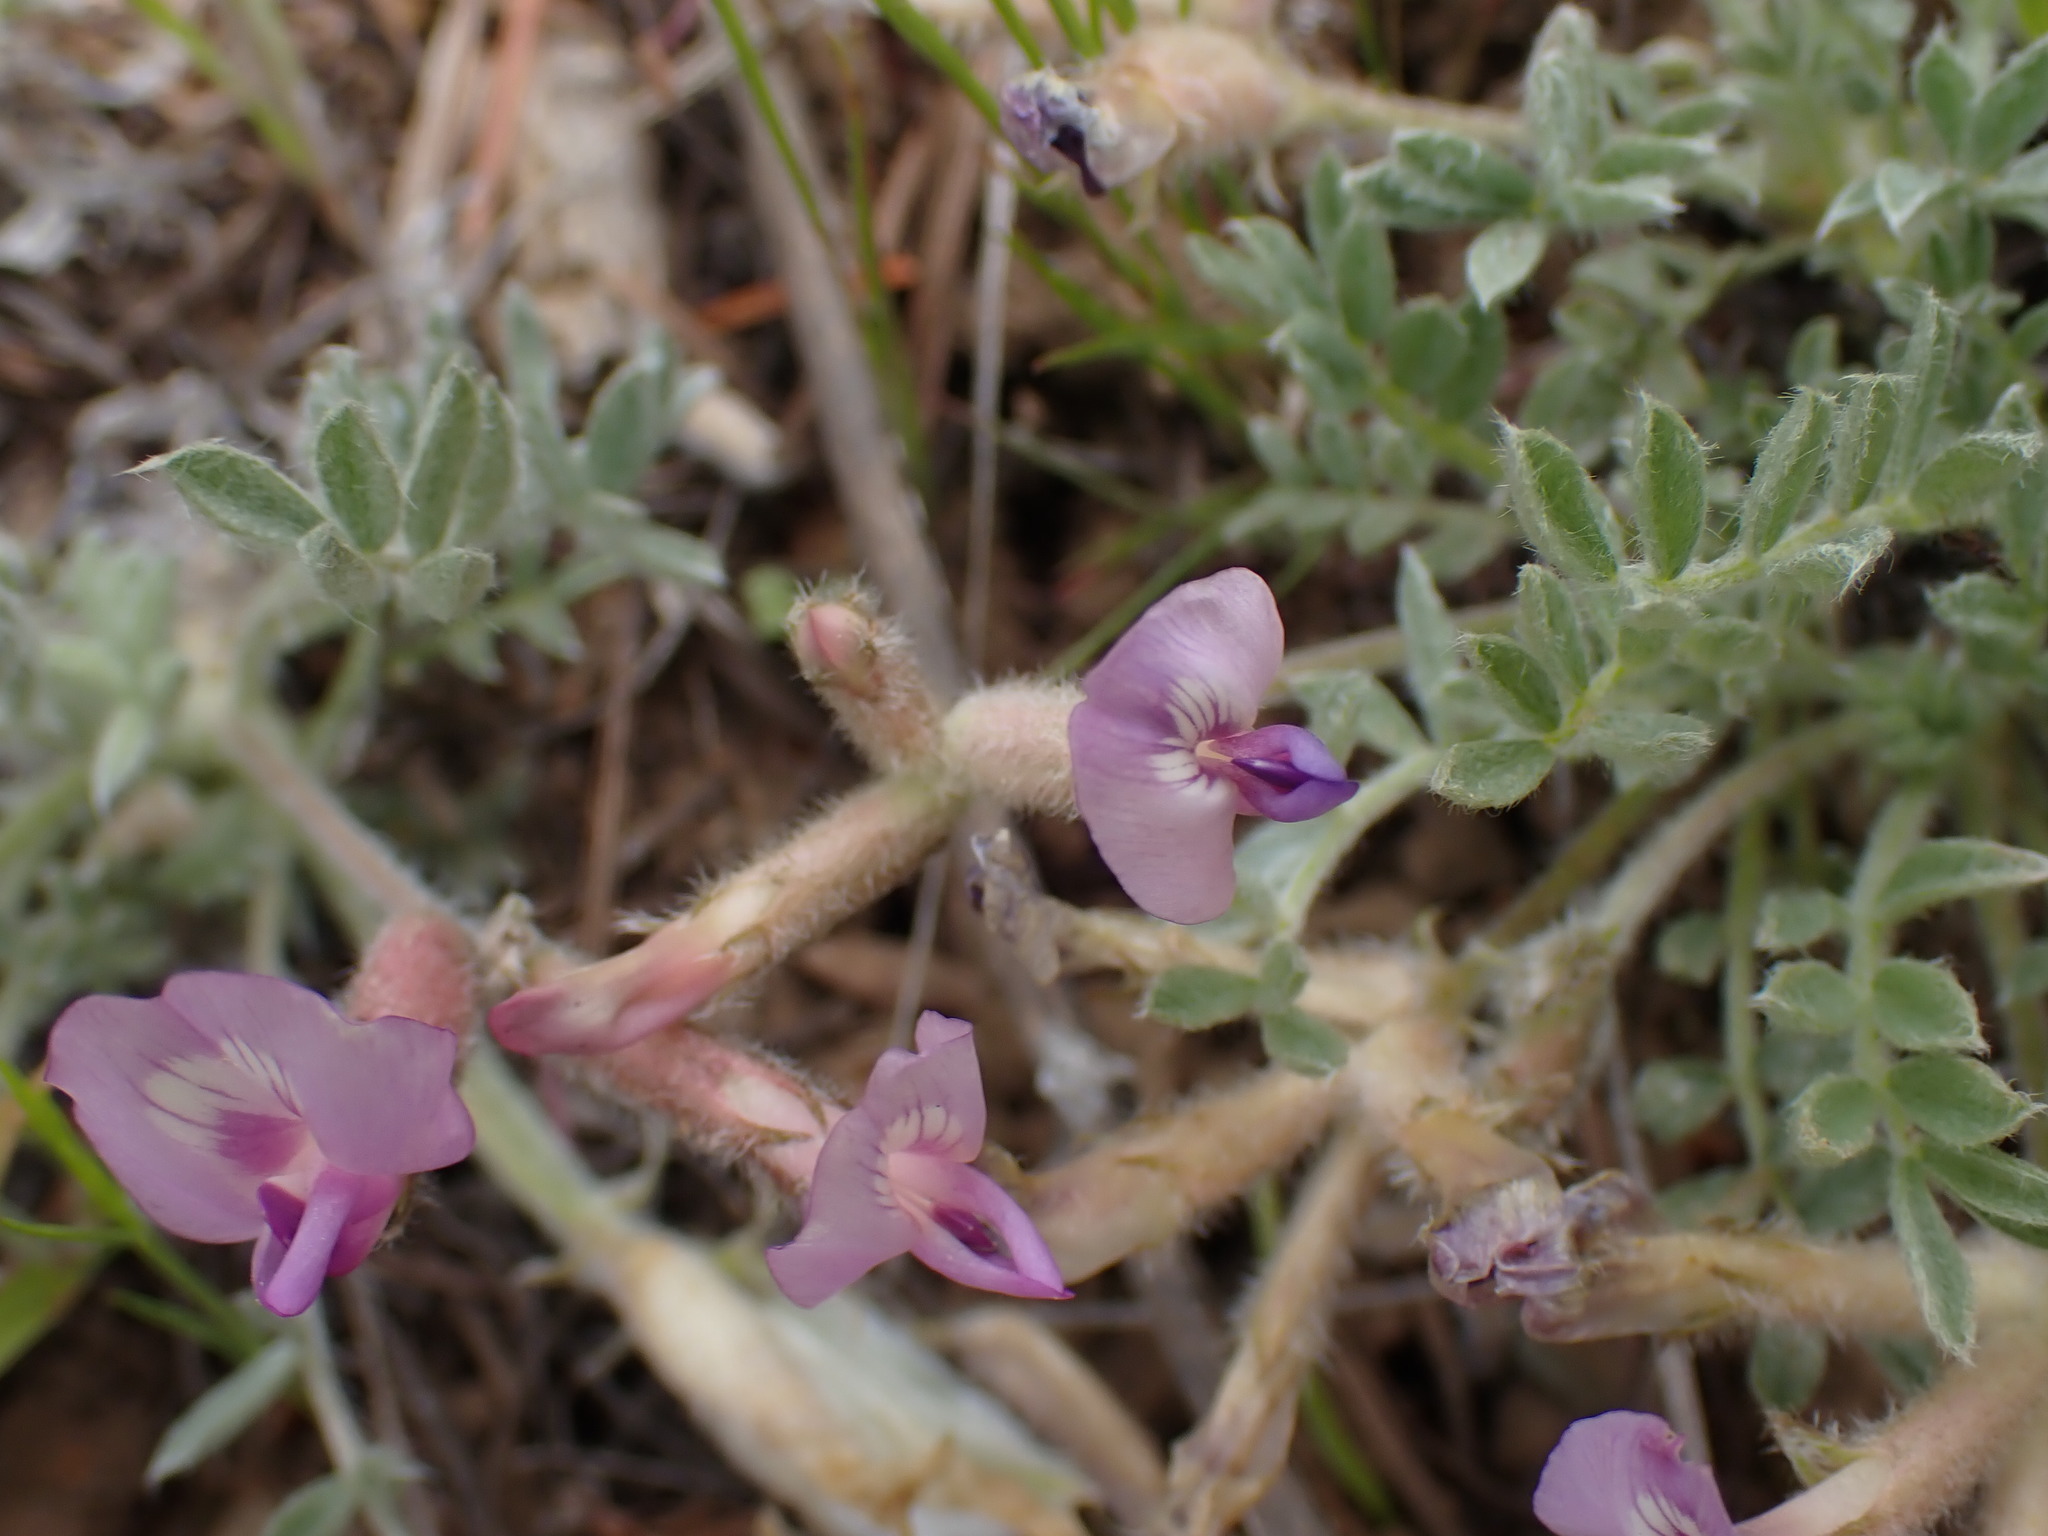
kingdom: Plantae
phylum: Tracheophyta
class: Magnoliopsida
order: Fabales
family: Fabaceae
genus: Astragalus
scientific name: Astragalus purshii
